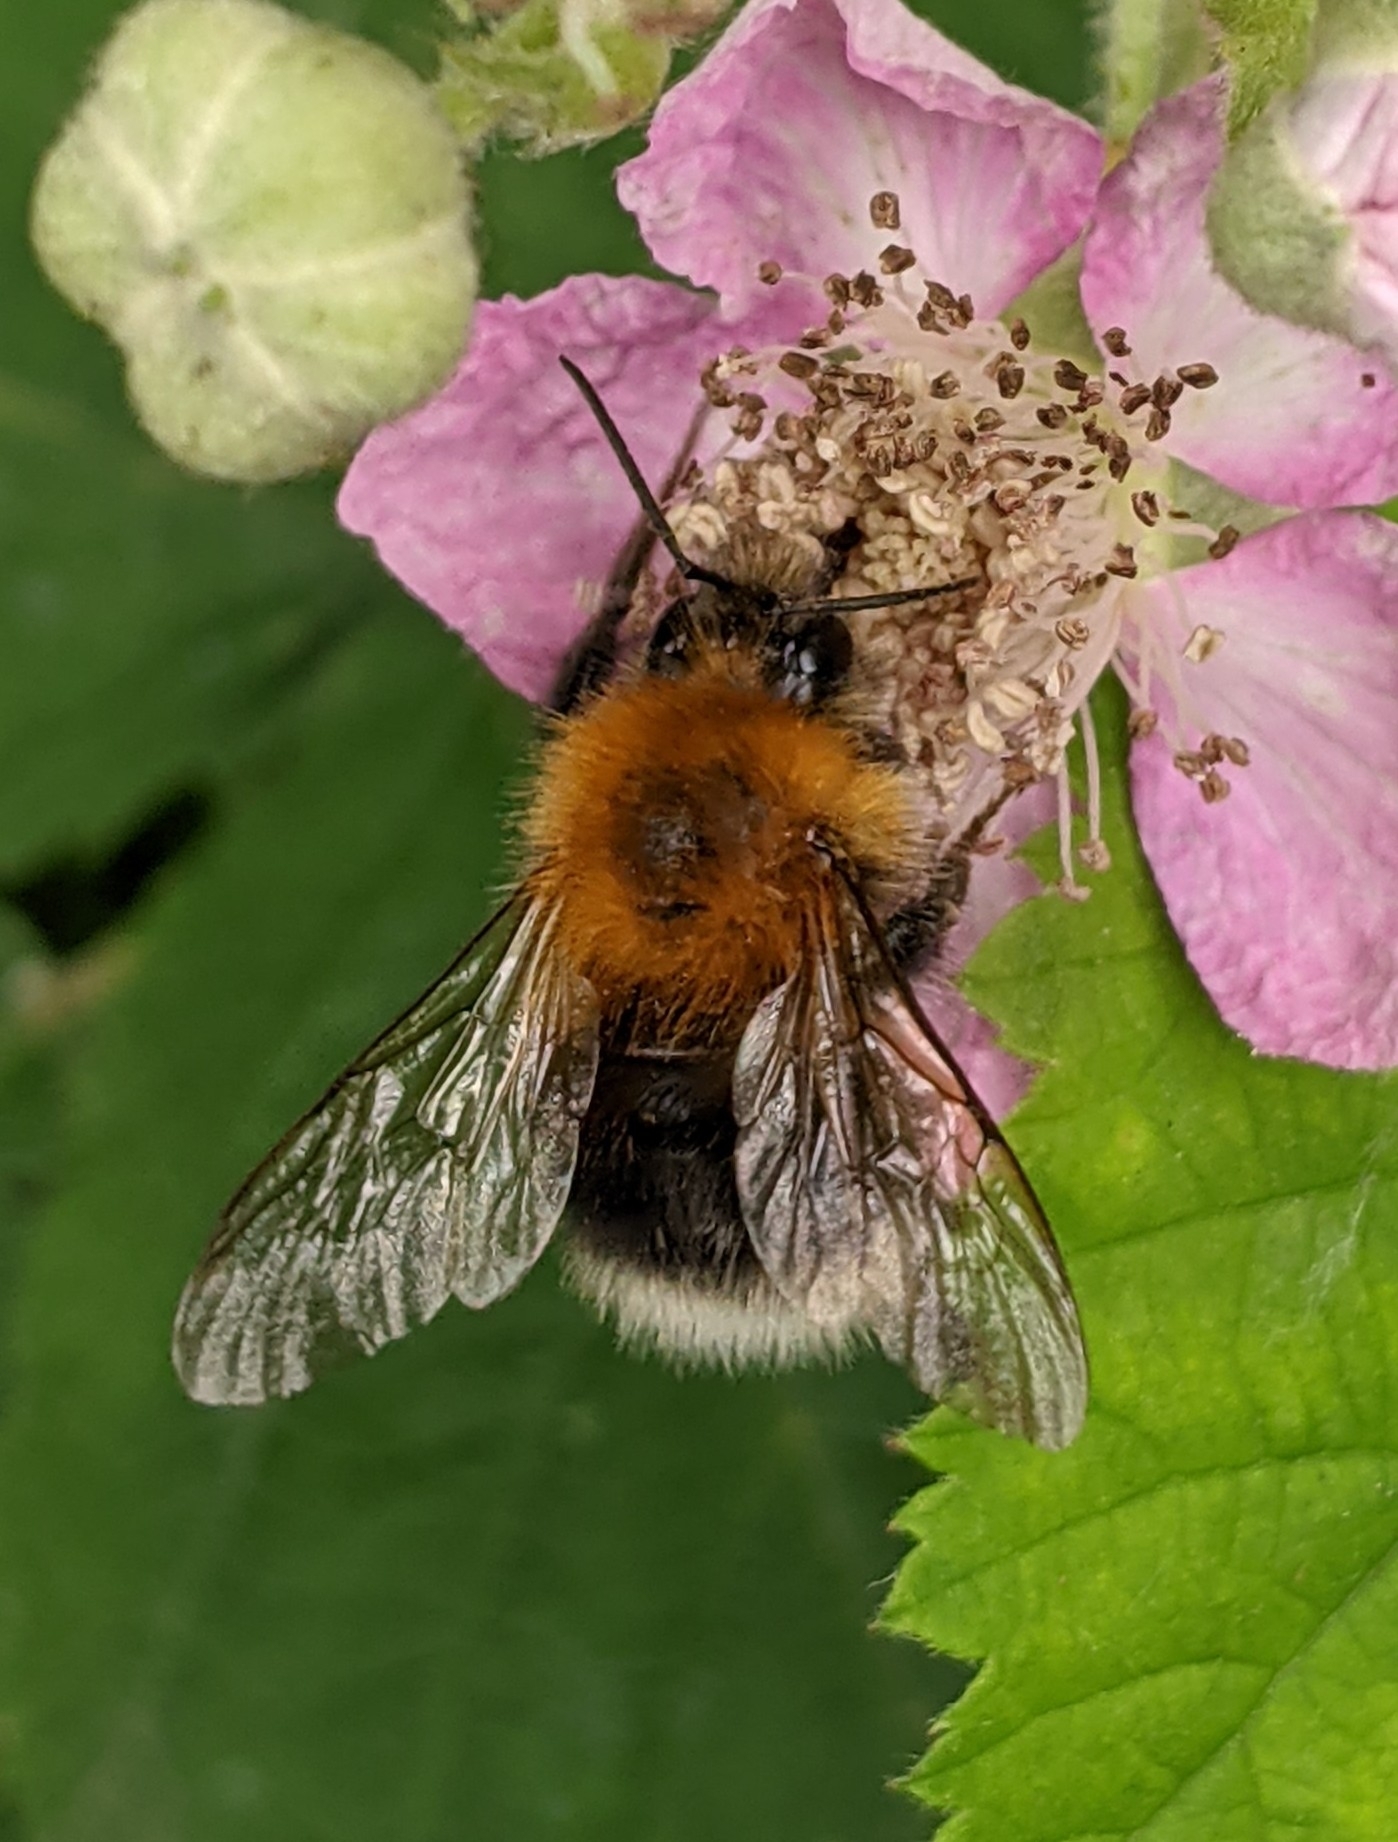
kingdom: Animalia
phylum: Arthropoda
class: Insecta
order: Hymenoptera
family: Apidae
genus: Bombus
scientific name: Bombus hypnorum
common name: New garden bumblebee
